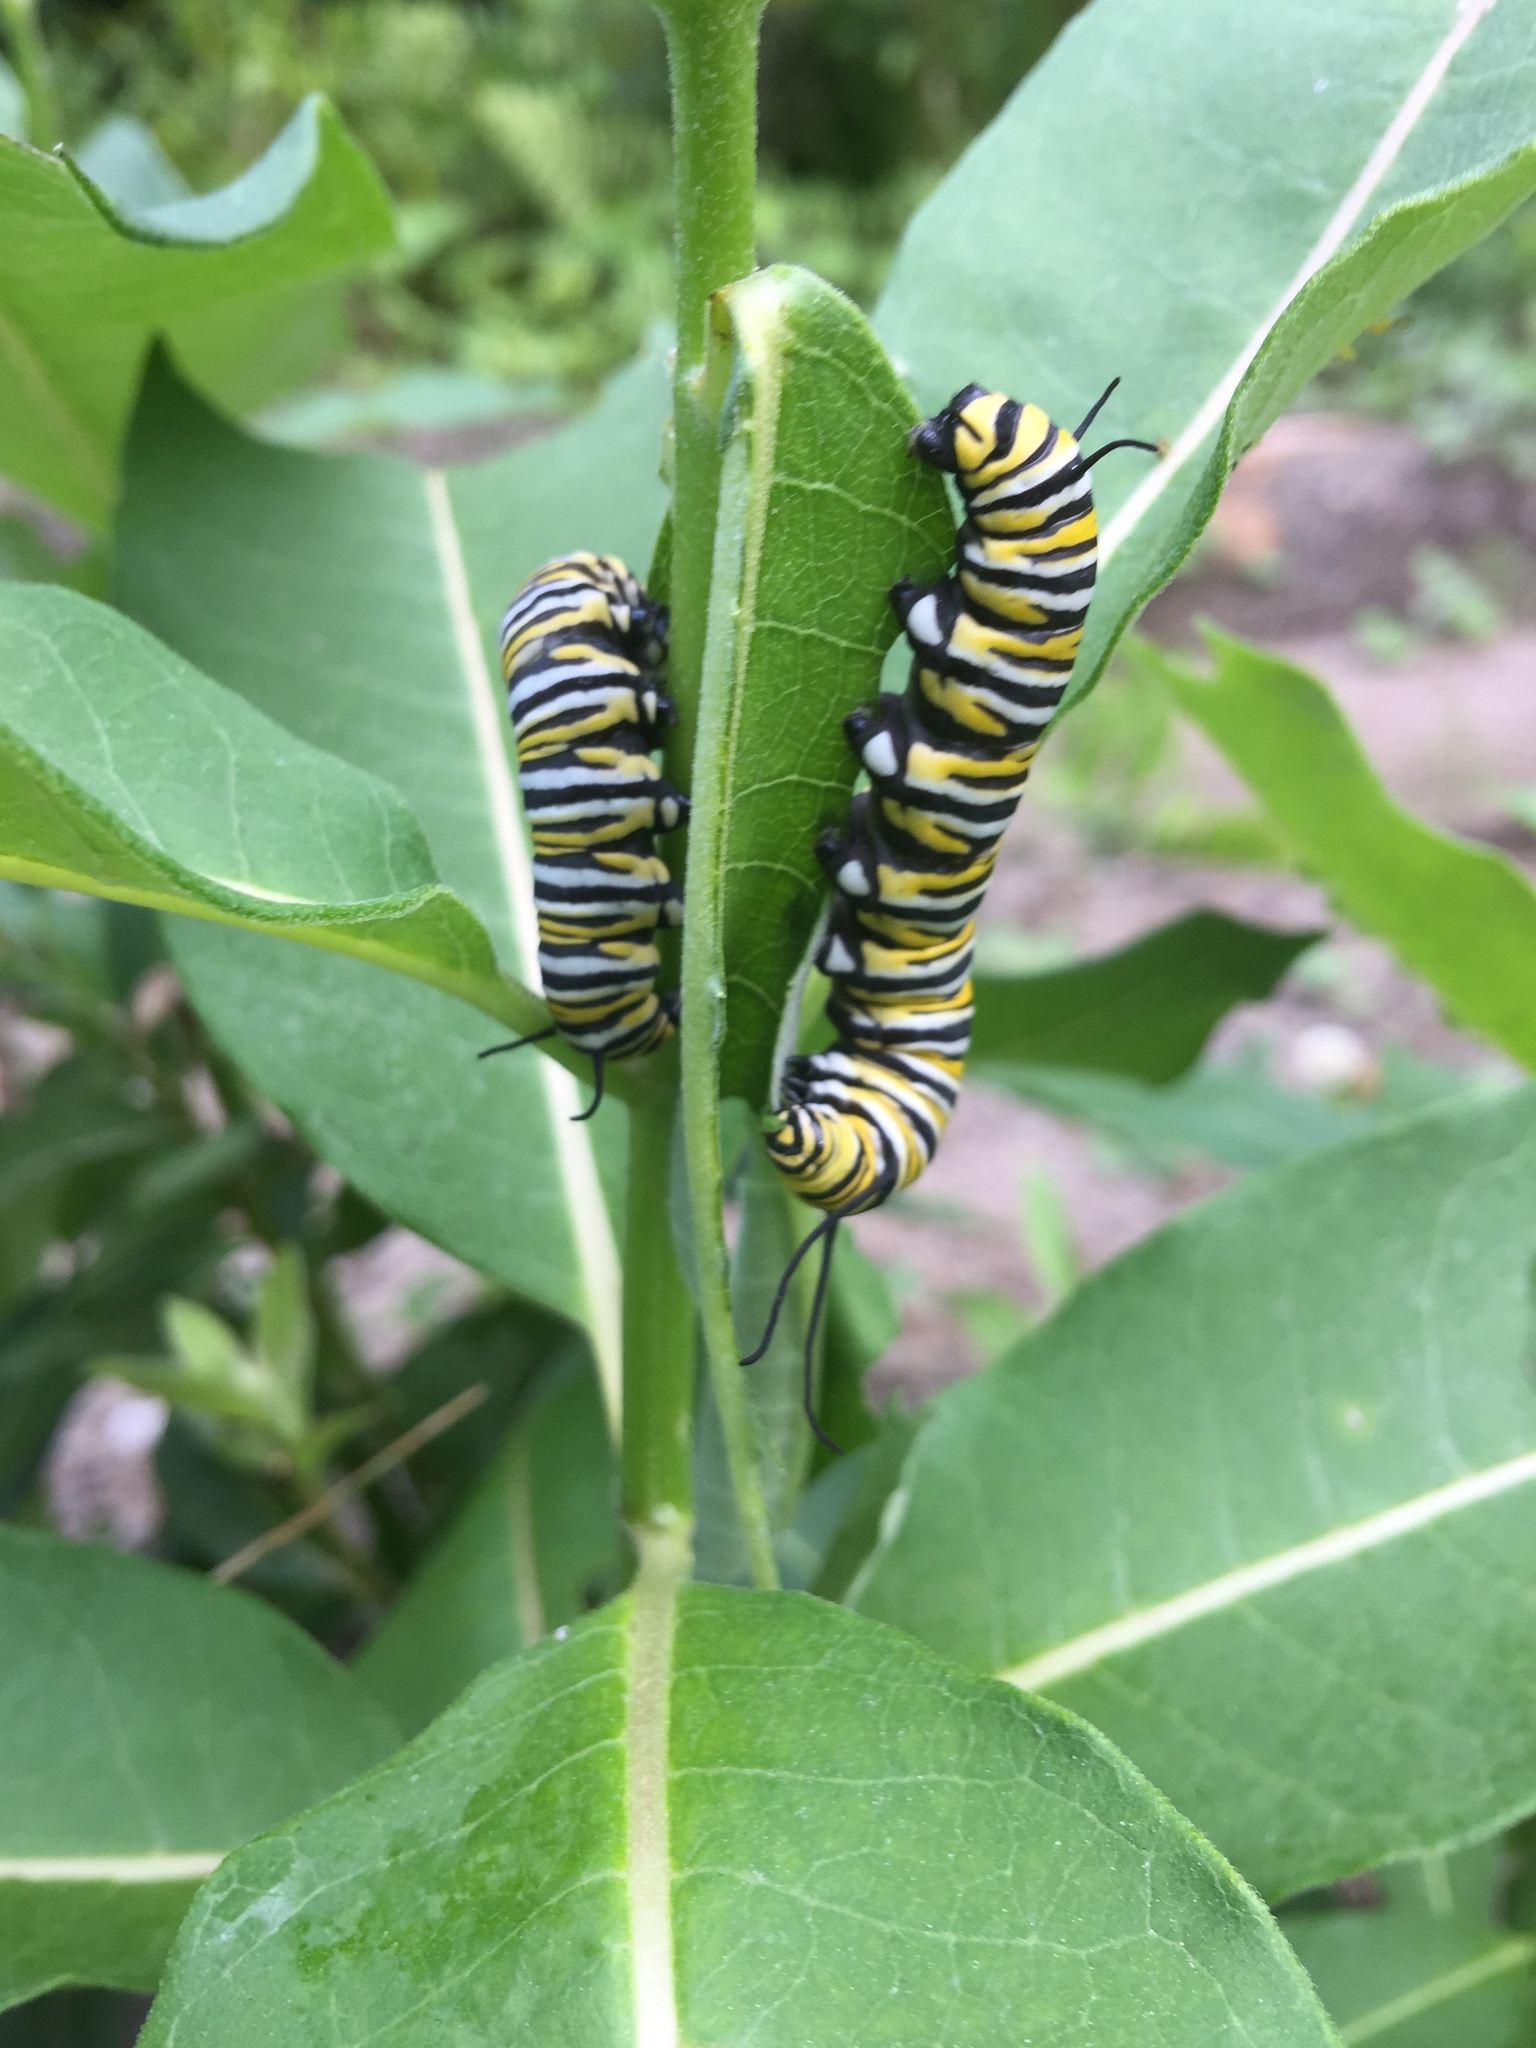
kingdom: Animalia
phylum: Arthropoda
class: Insecta
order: Lepidoptera
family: Nymphalidae
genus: Danaus
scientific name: Danaus plexippus
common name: Monarch
